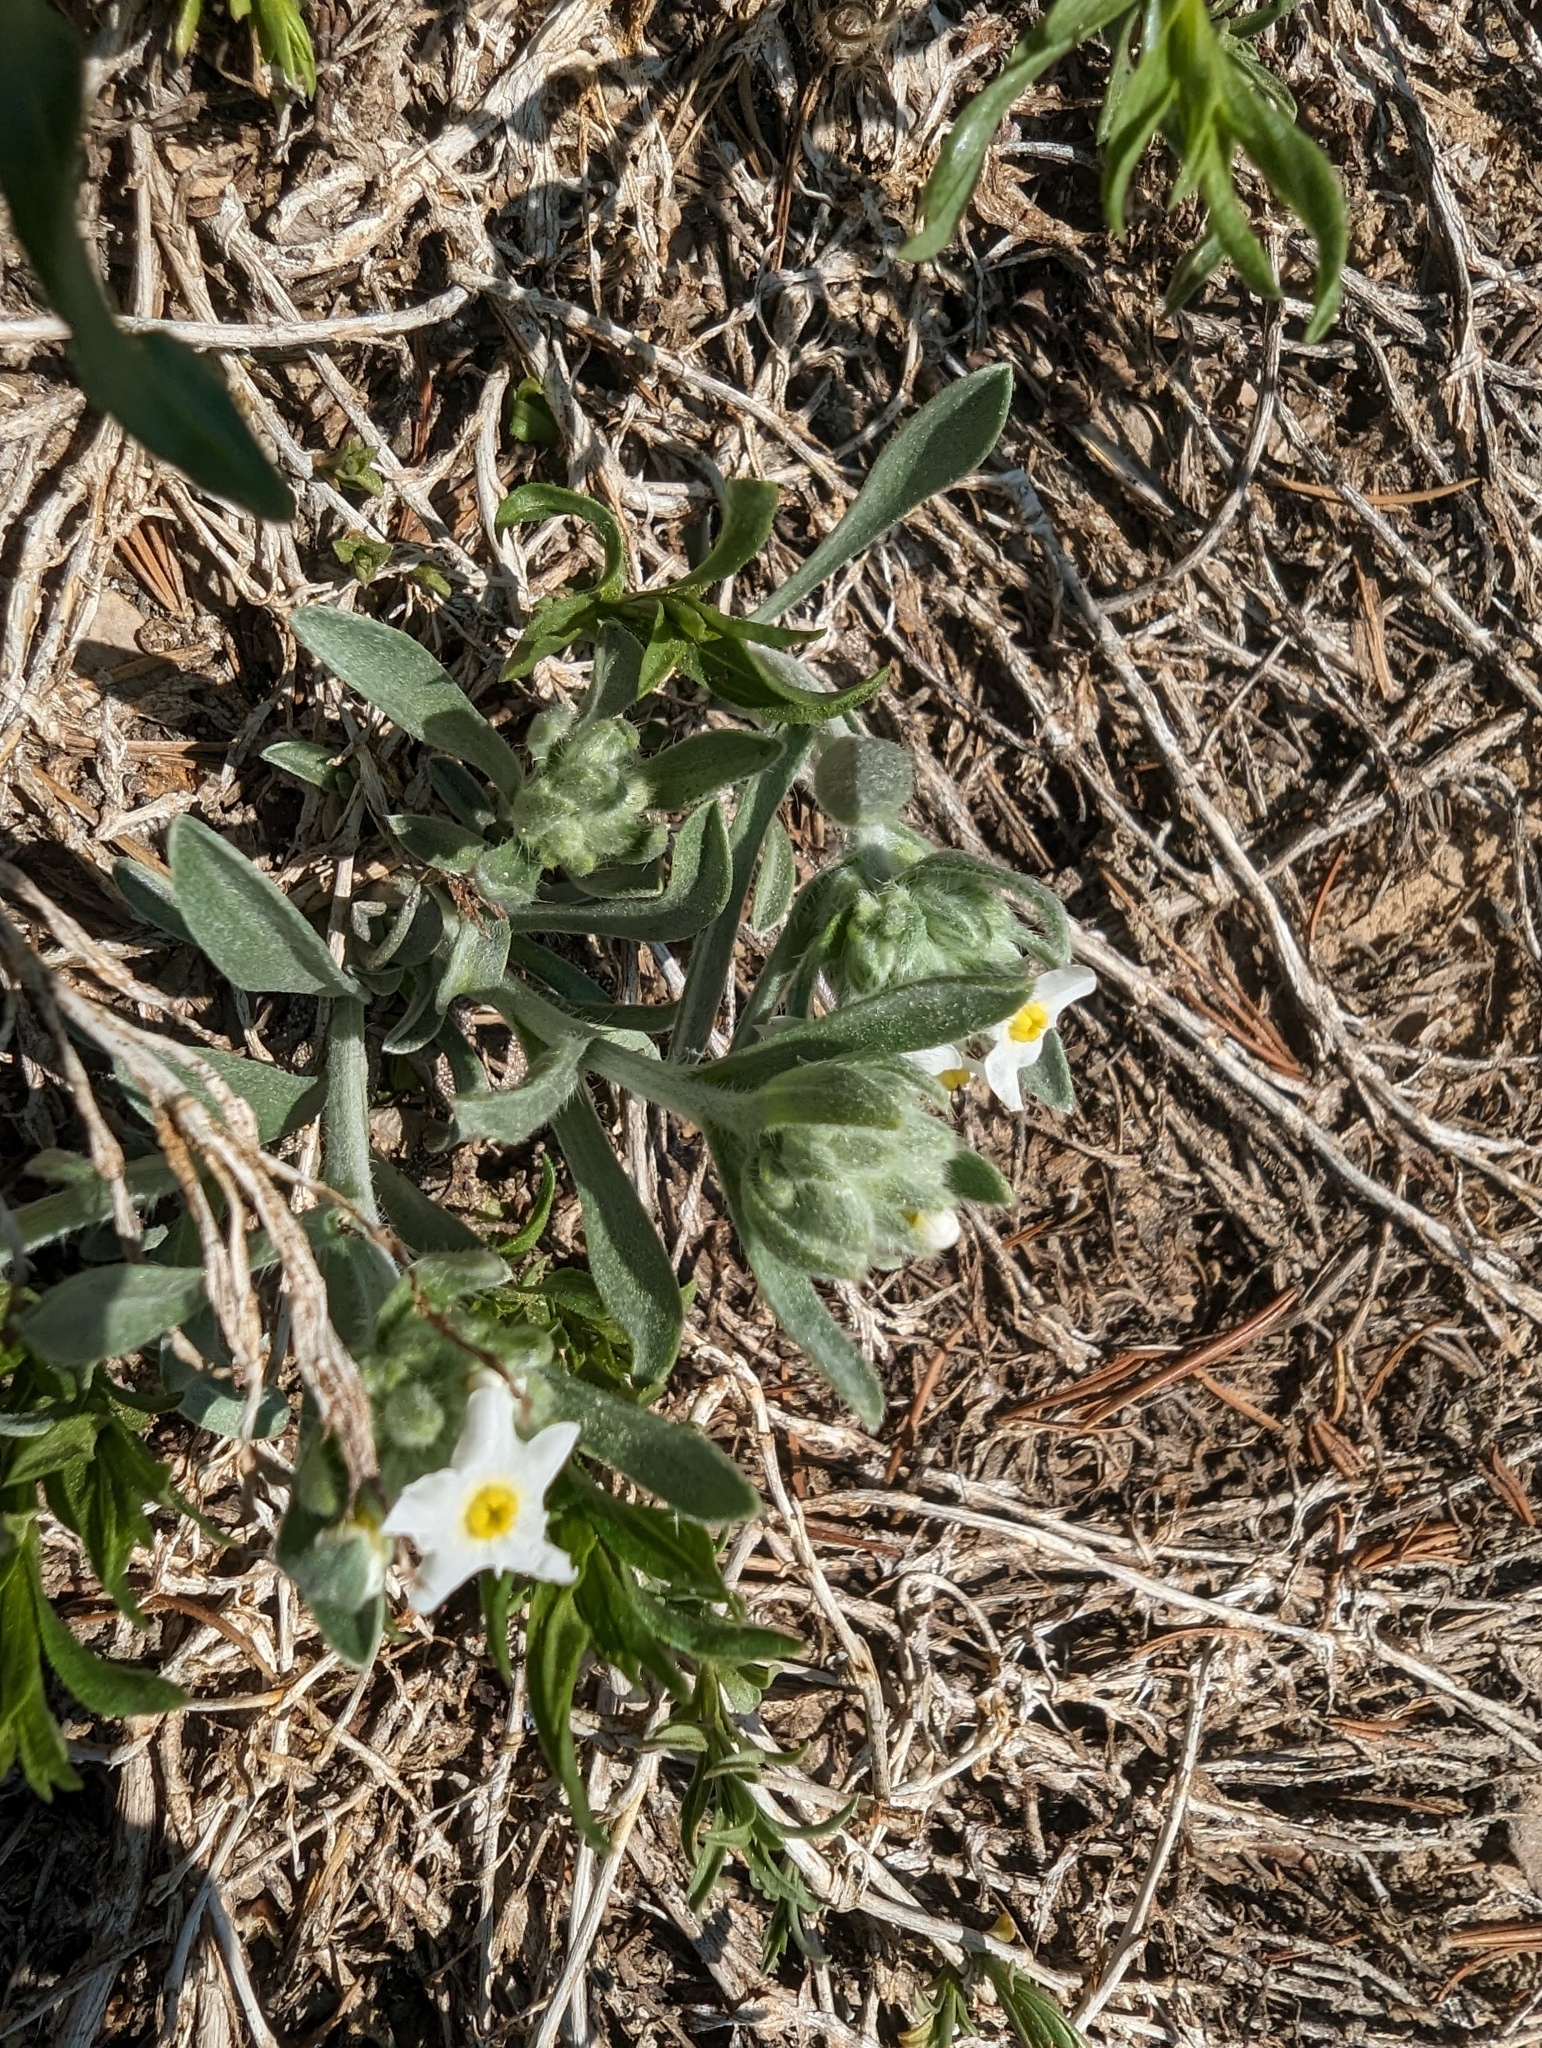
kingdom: Plantae
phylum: Tracheophyta
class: Magnoliopsida
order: Boraginales
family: Boraginaceae
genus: Oreocarya
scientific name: Oreocarya flavoculata
